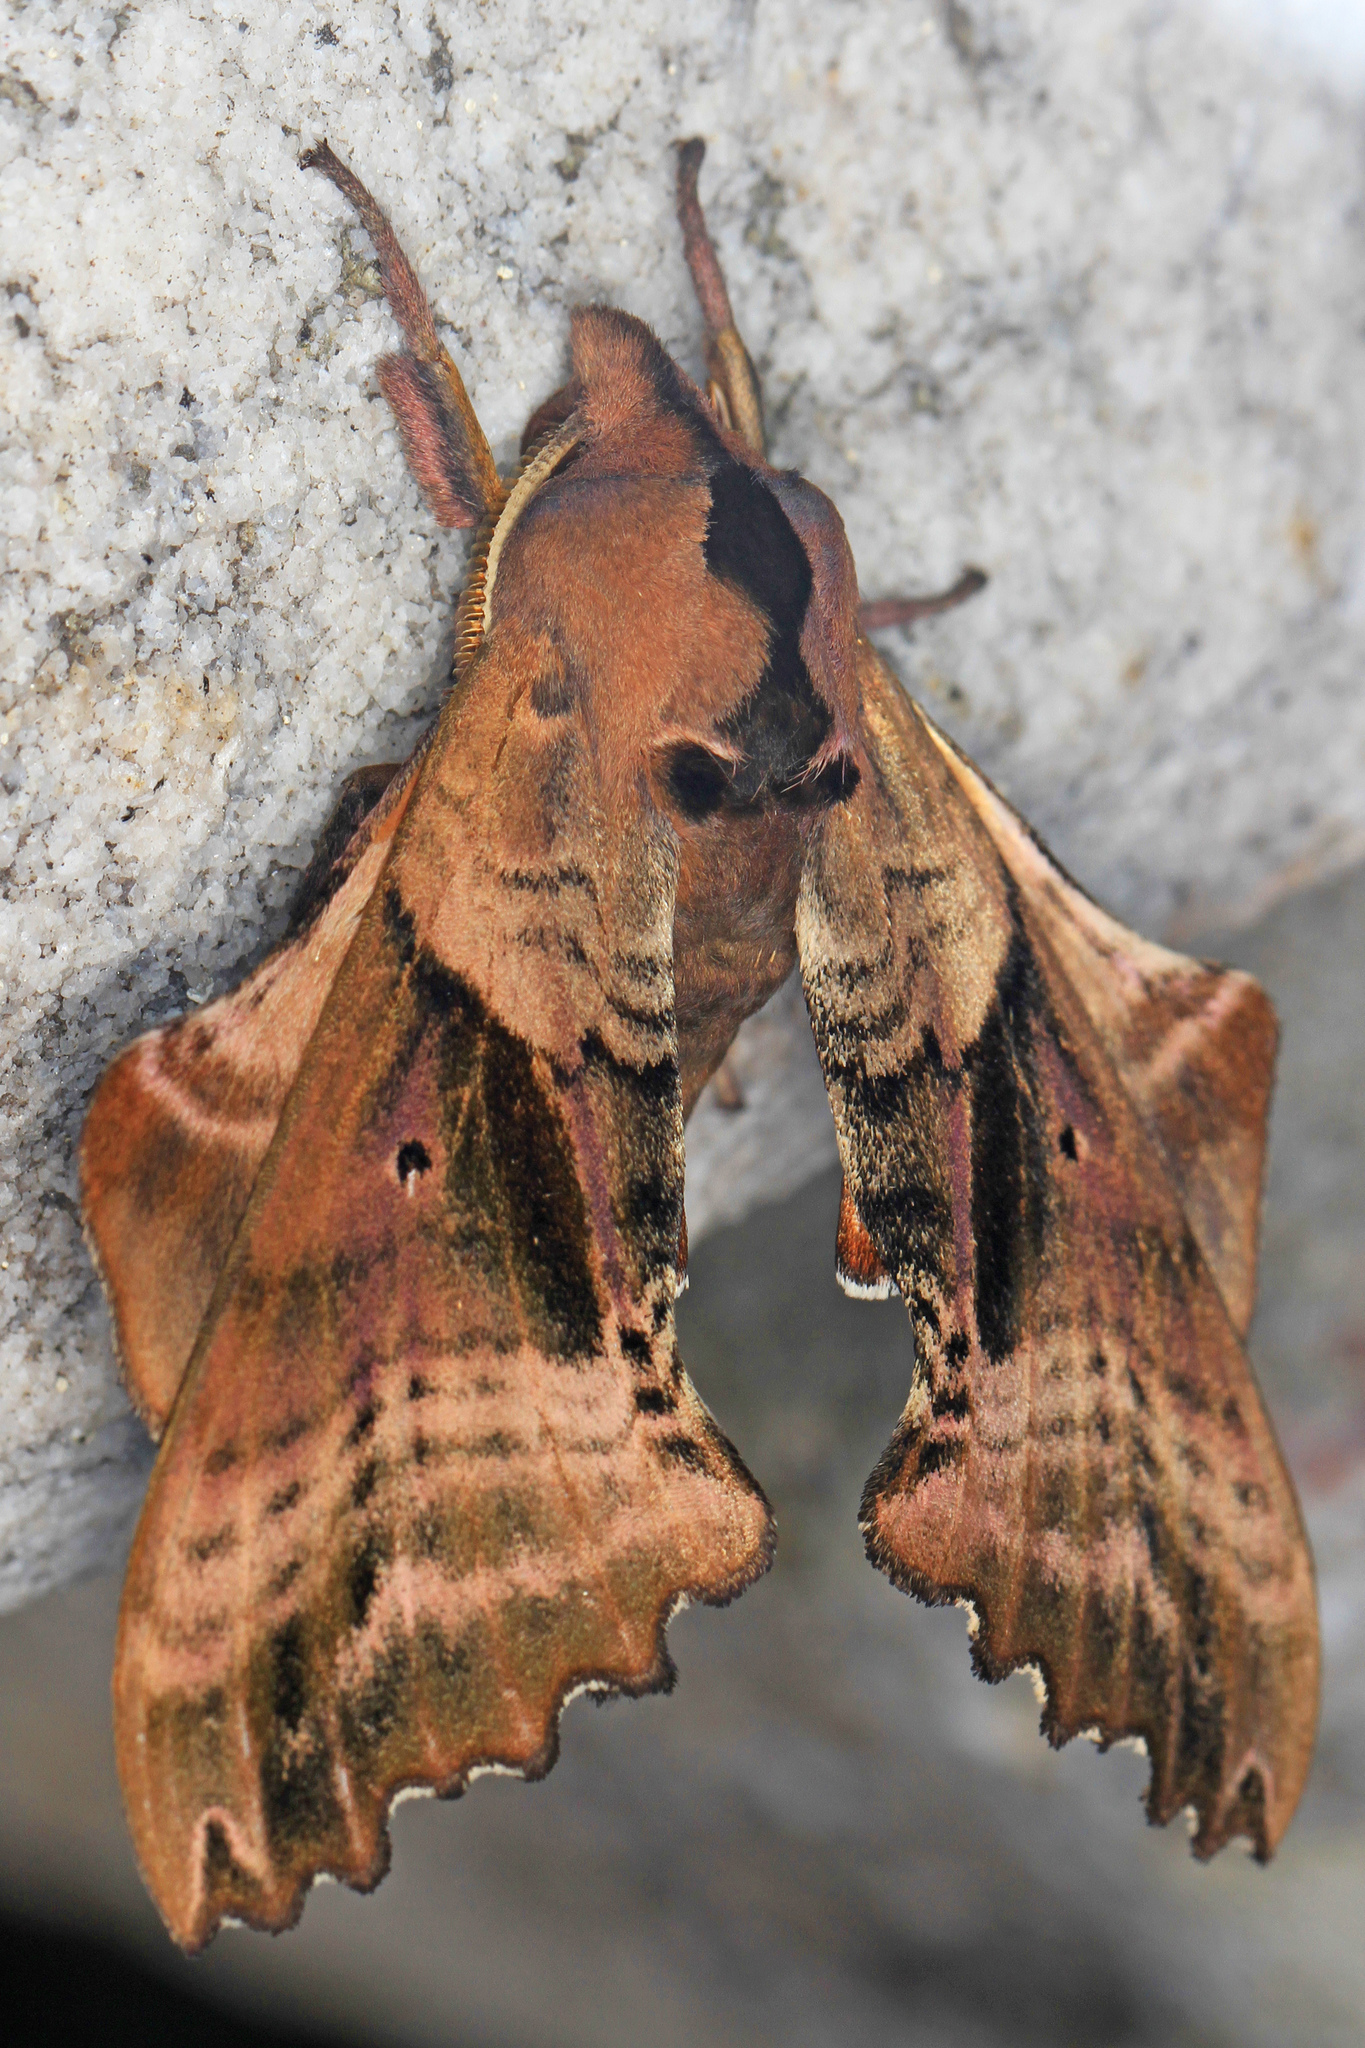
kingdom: Animalia
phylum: Arthropoda
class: Insecta
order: Lepidoptera
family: Sphingidae
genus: Paonias
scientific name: Paonias excaecata
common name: Blind-eyed sphinx
